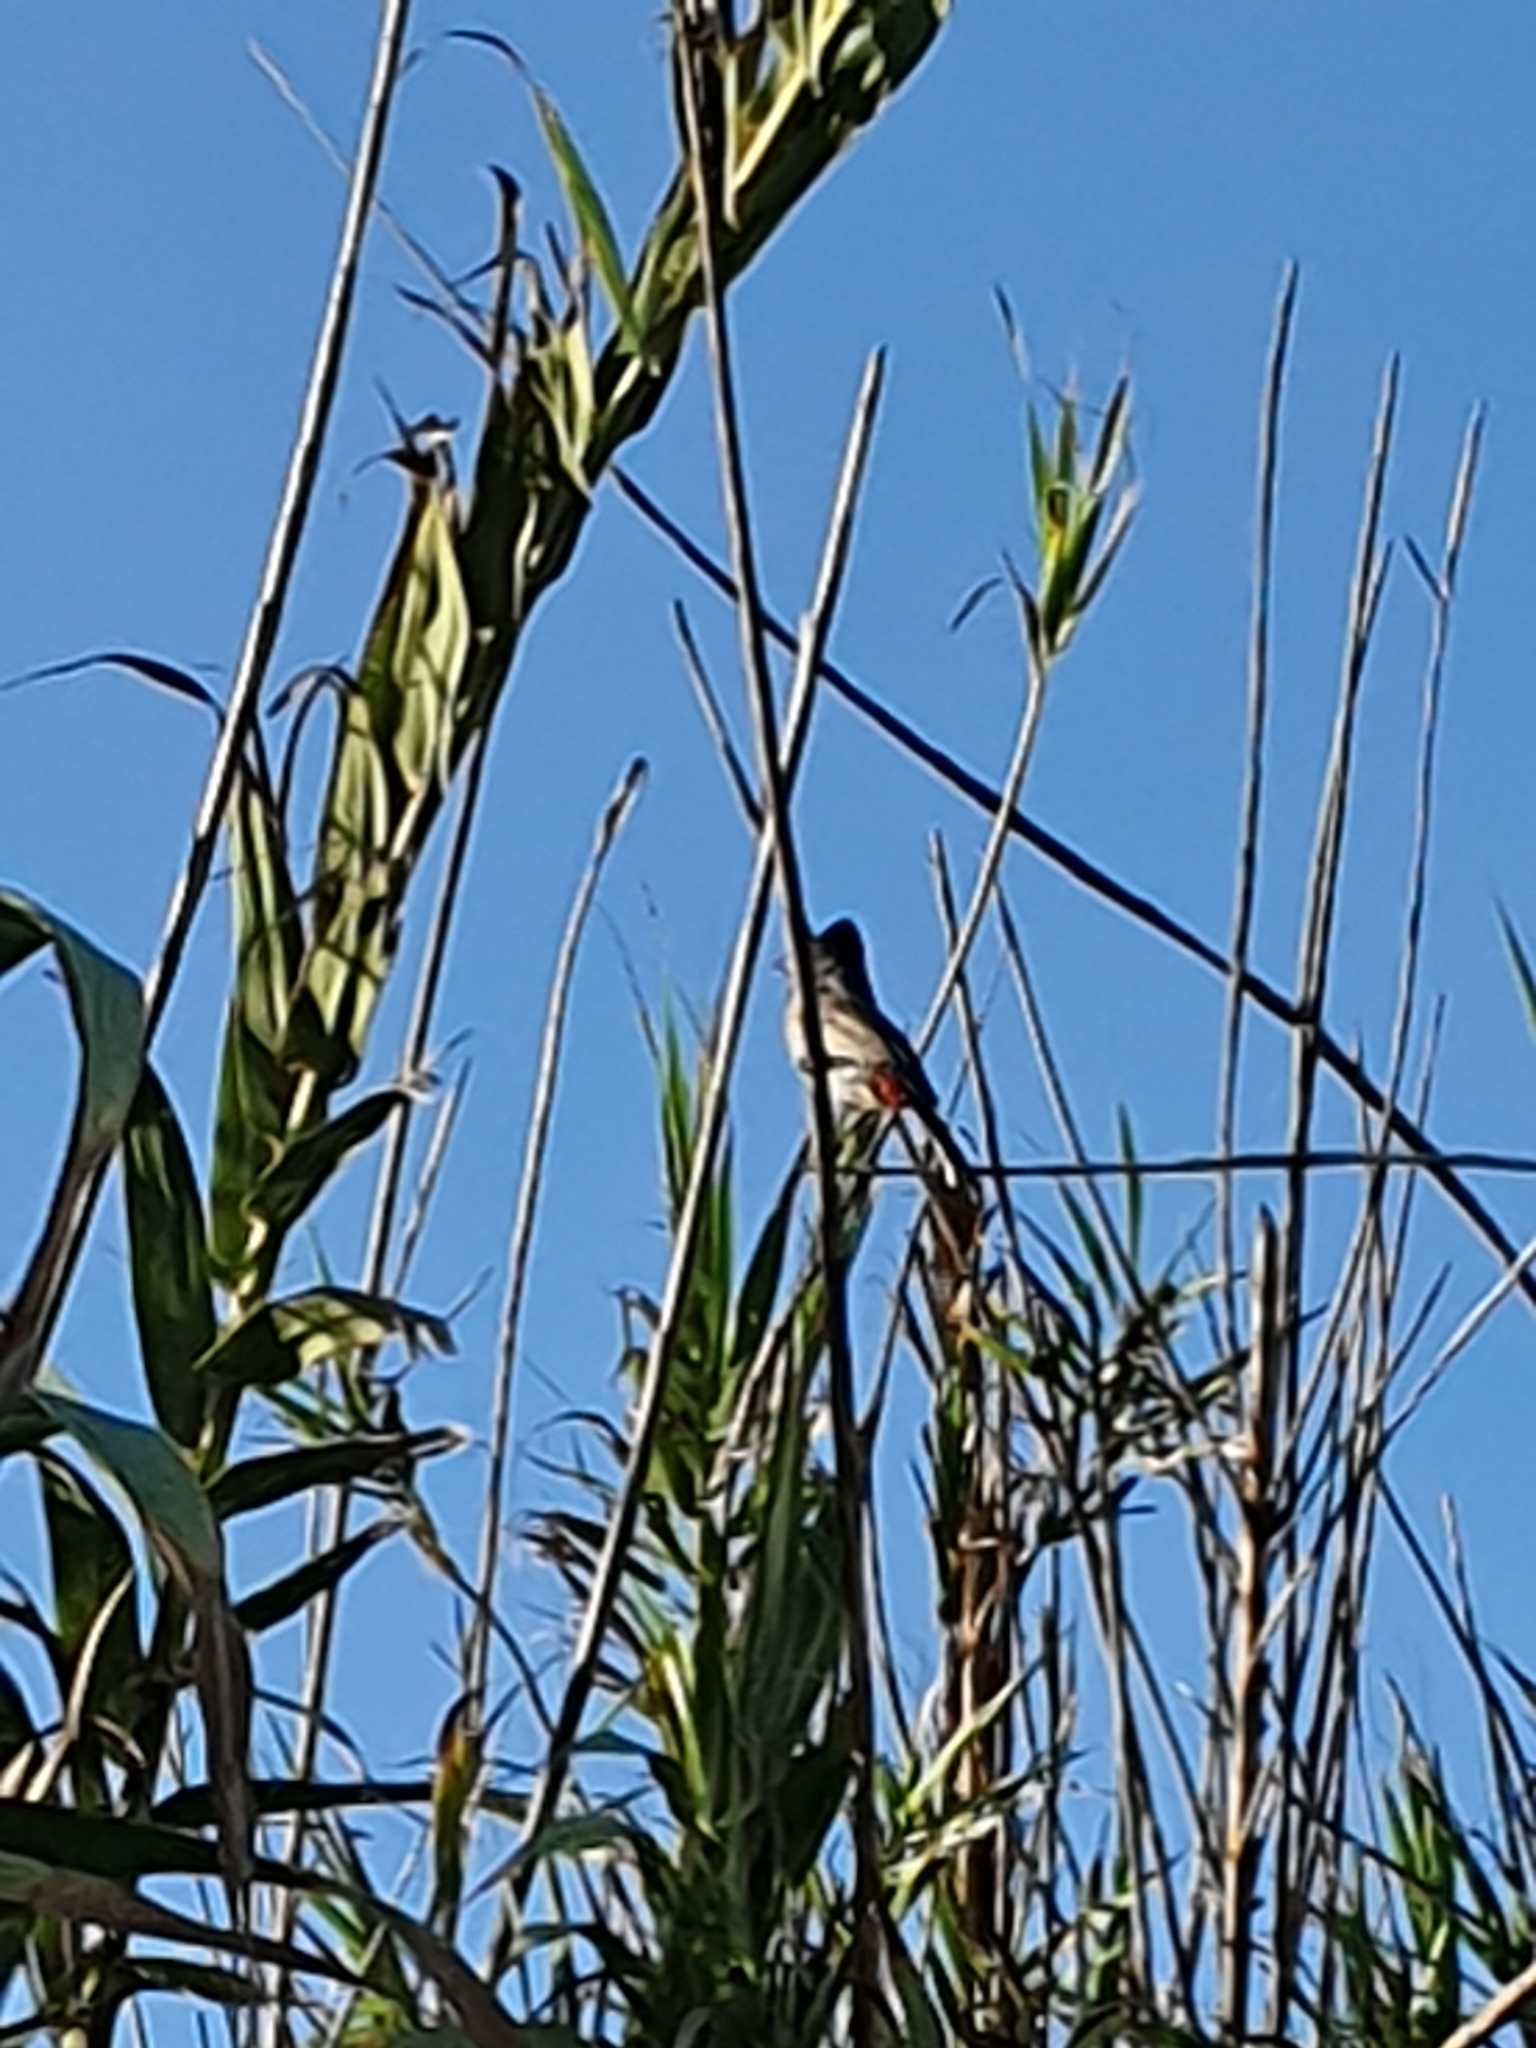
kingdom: Animalia
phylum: Chordata
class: Aves
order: Passeriformes
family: Pycnonotidae
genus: Pycnonotus
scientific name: Pycnonotus cafer
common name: Red-vented bulbul
